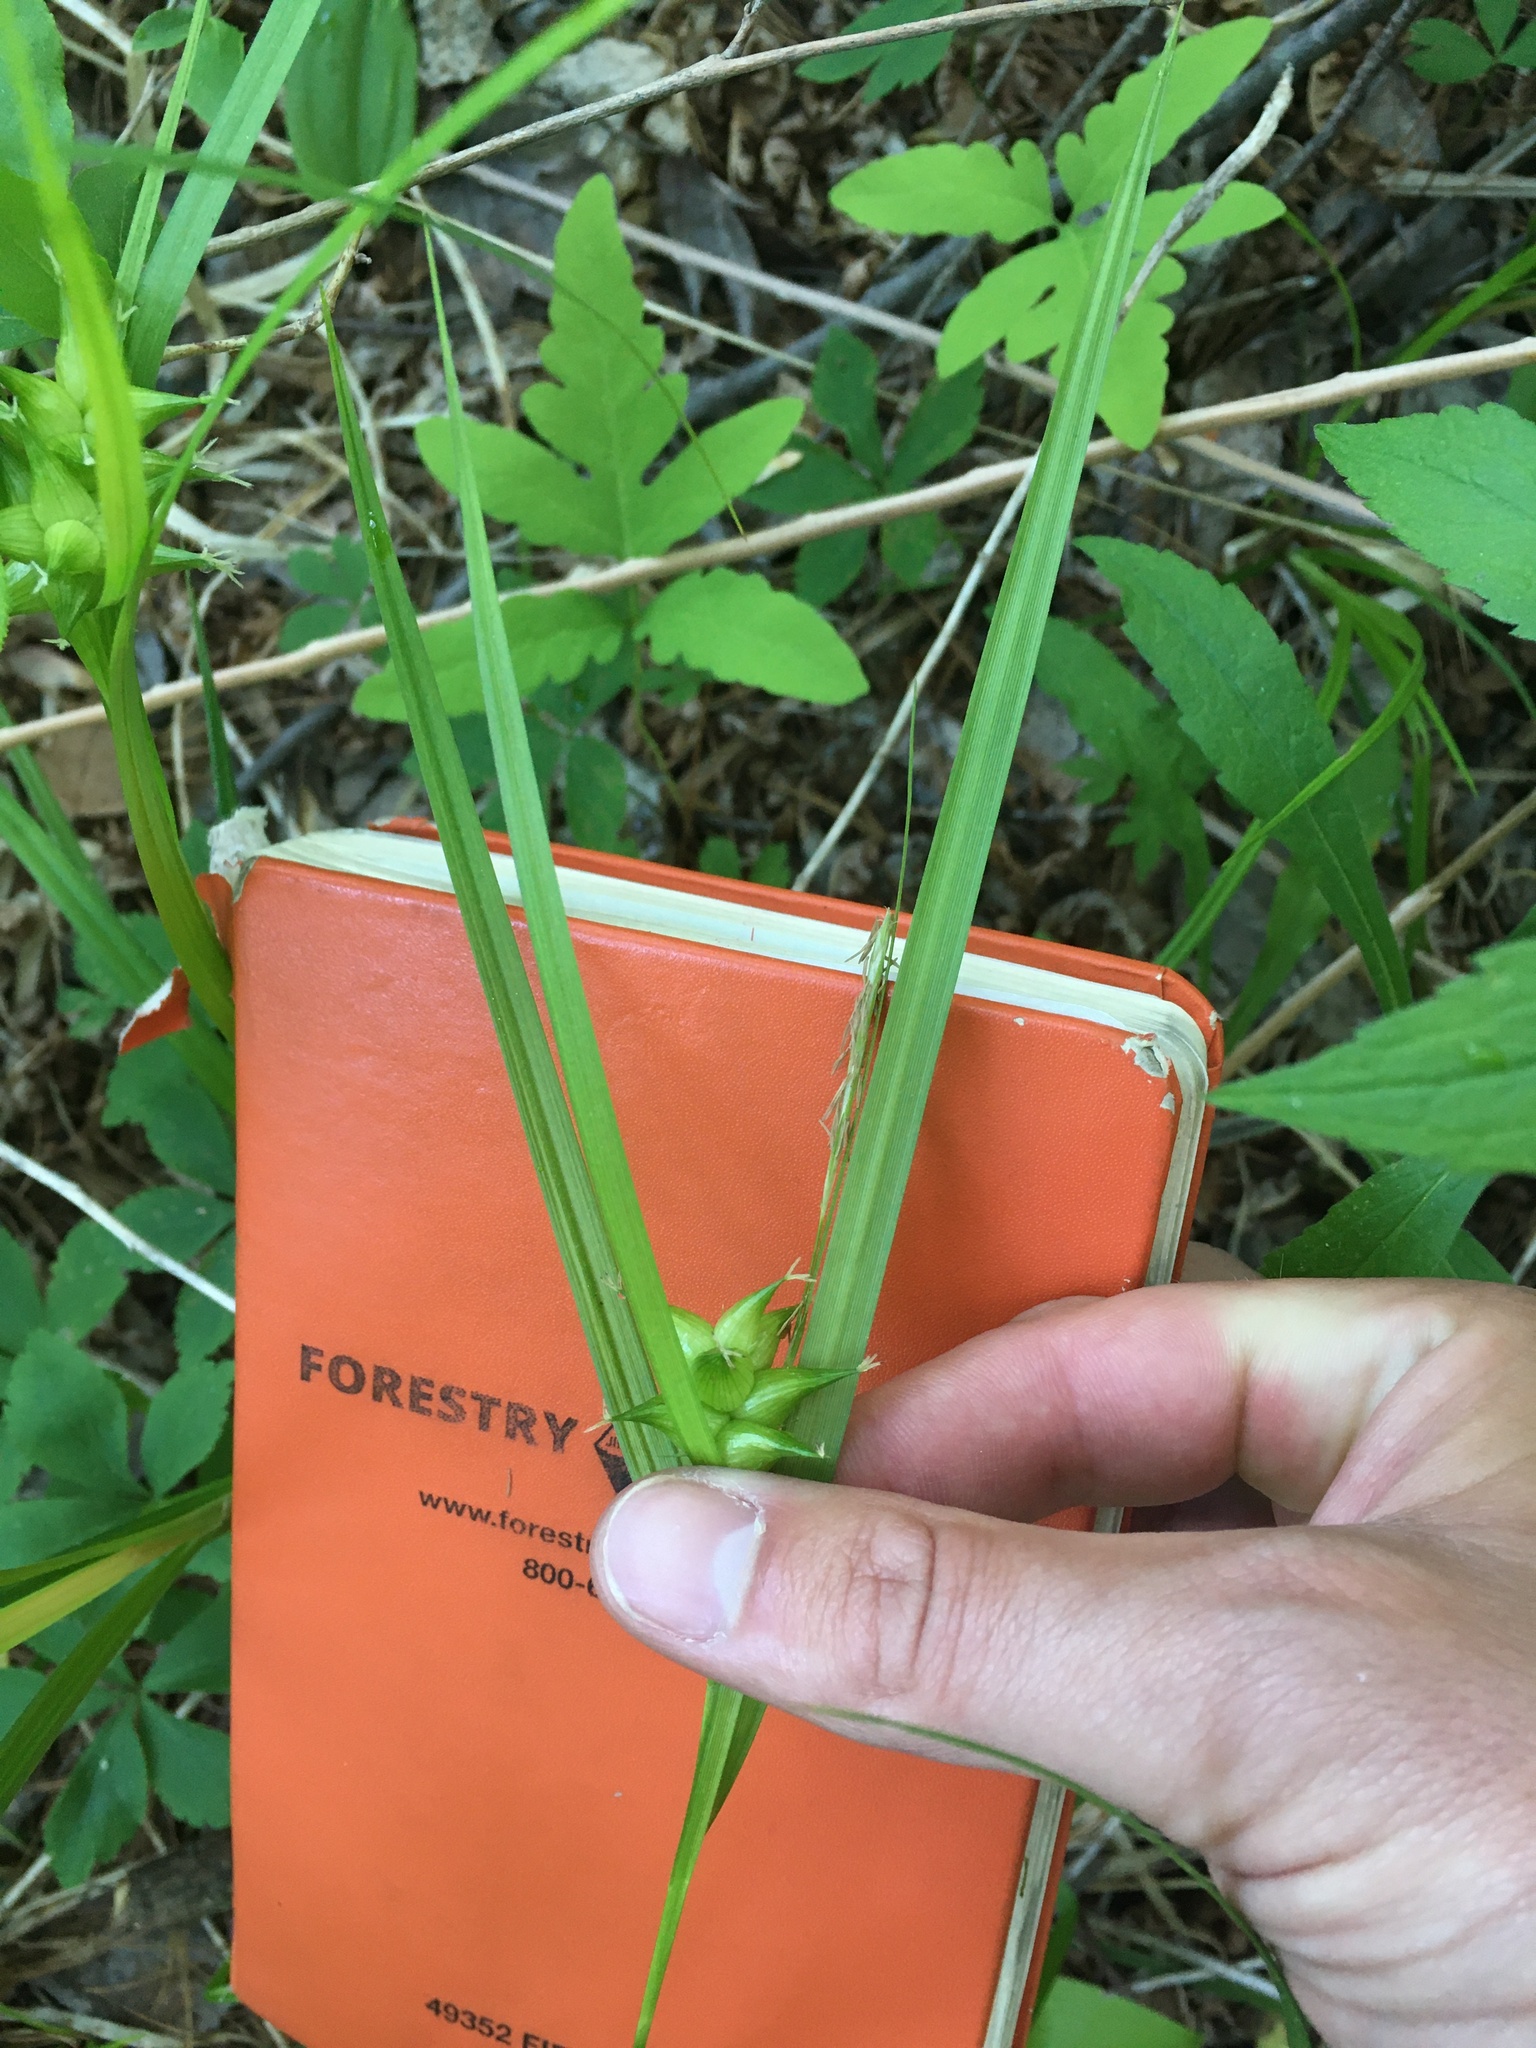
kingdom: Plantae
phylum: Tracheophyta
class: Liliopsida
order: Poales
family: Cyperaceae
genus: Carex
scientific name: Carex intumescens
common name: Greater bladder sedge
